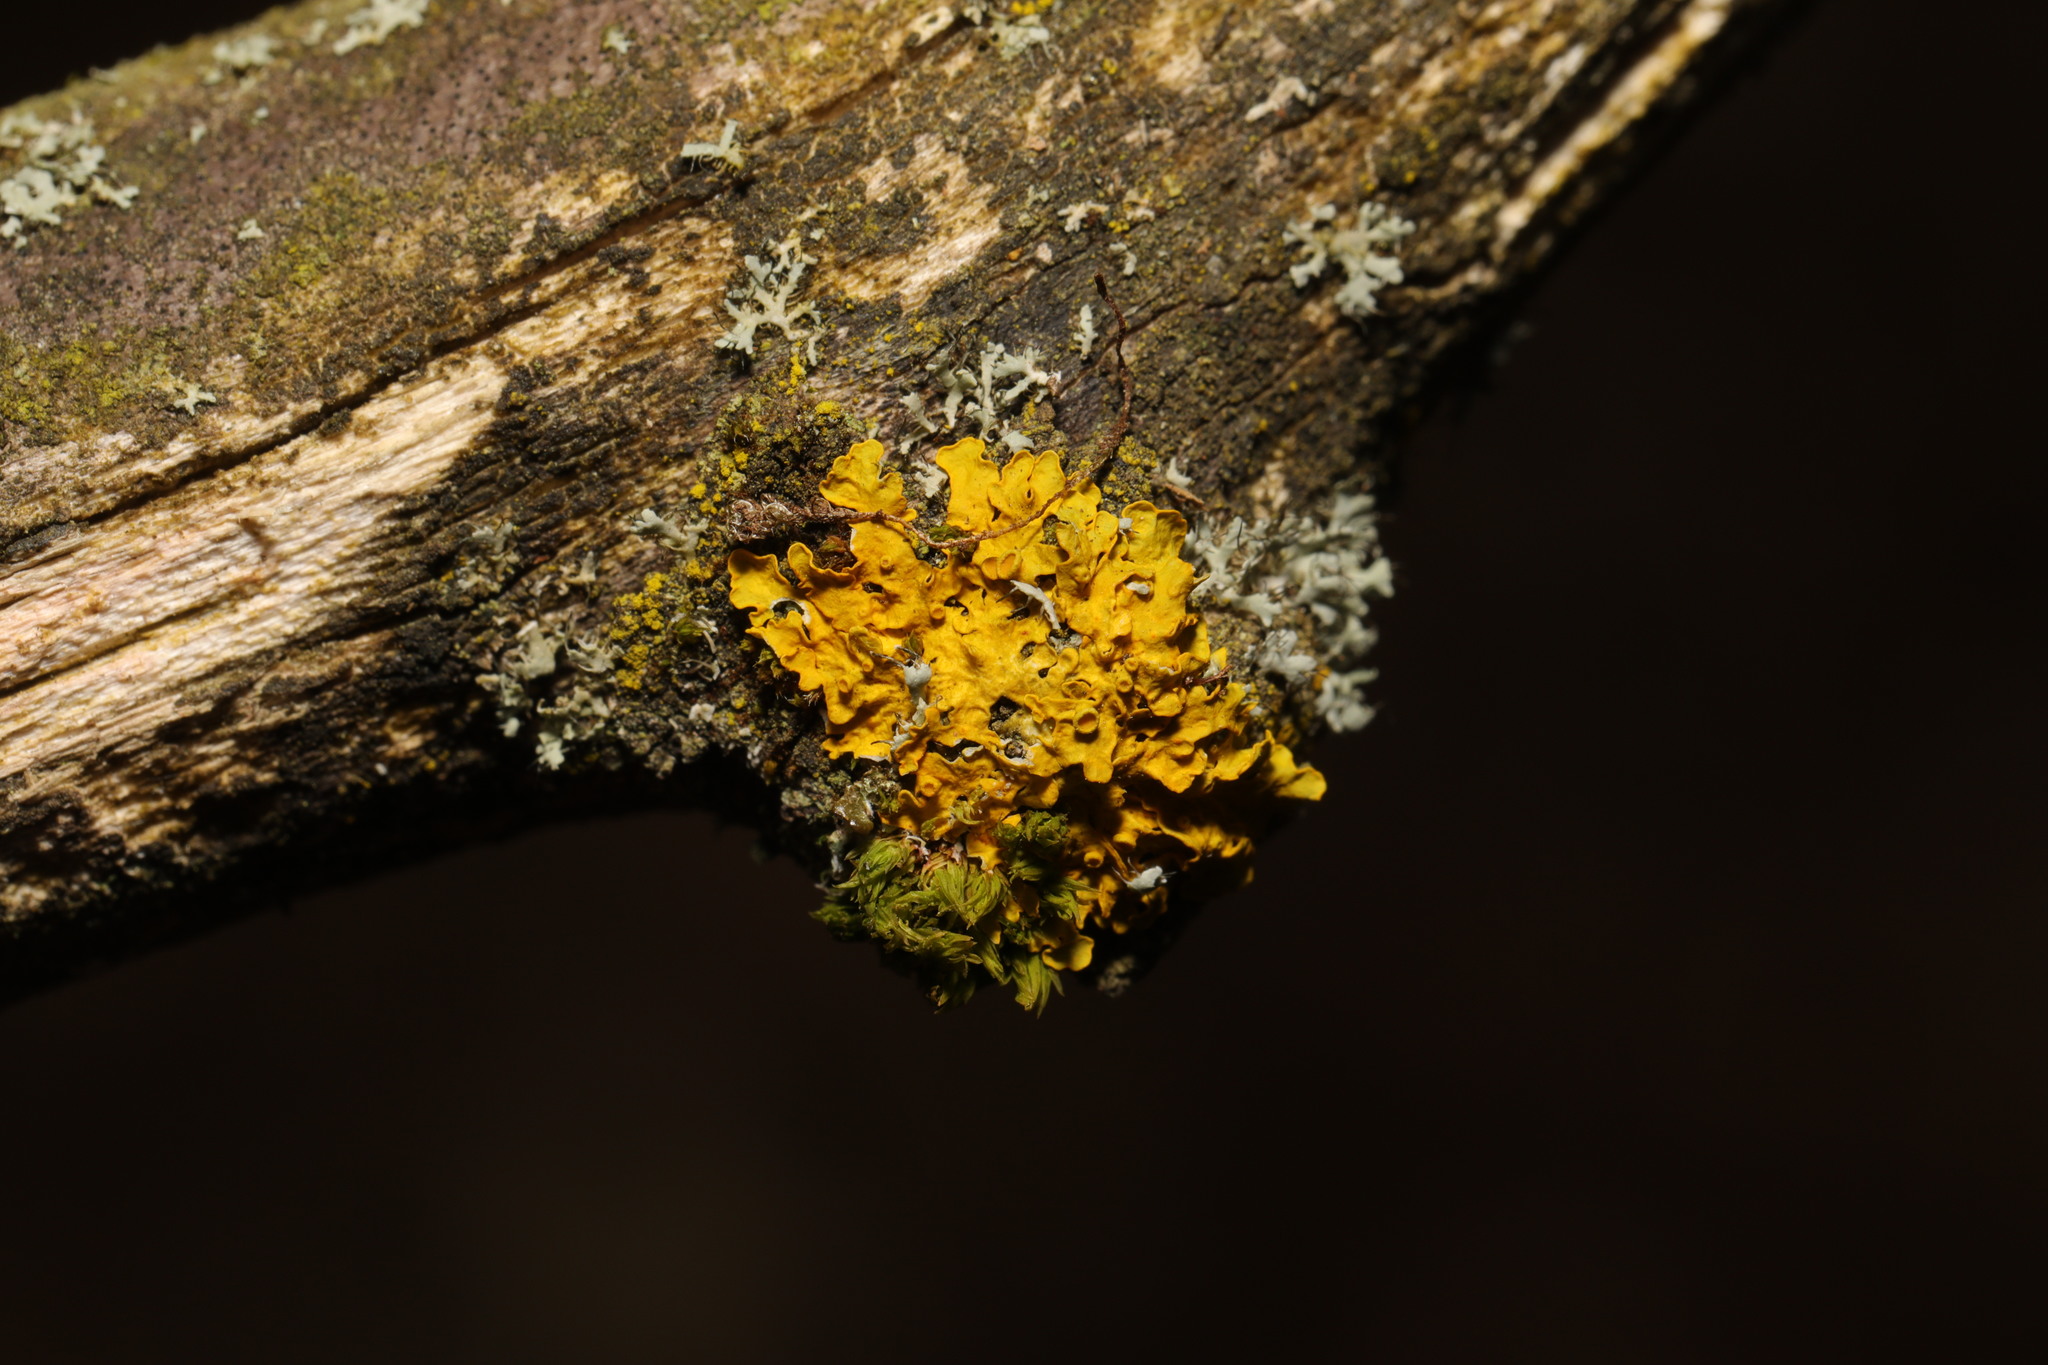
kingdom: Fungi
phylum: Ascomycota
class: Lecanoromycetes
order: Teloschistales
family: Teloschistaceae
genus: Xanthoria
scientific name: Xanthoria parietina
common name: Common orange lichen
